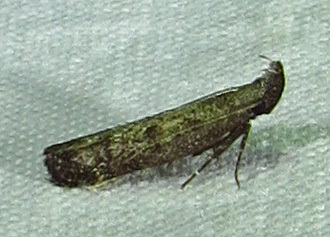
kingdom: Animalia
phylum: Arthropoda
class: Insecta
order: Lepidoptera
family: Gelechiidae
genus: Dichomeris
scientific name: Dichomeris inversella
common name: Inverse dichomeris moth
